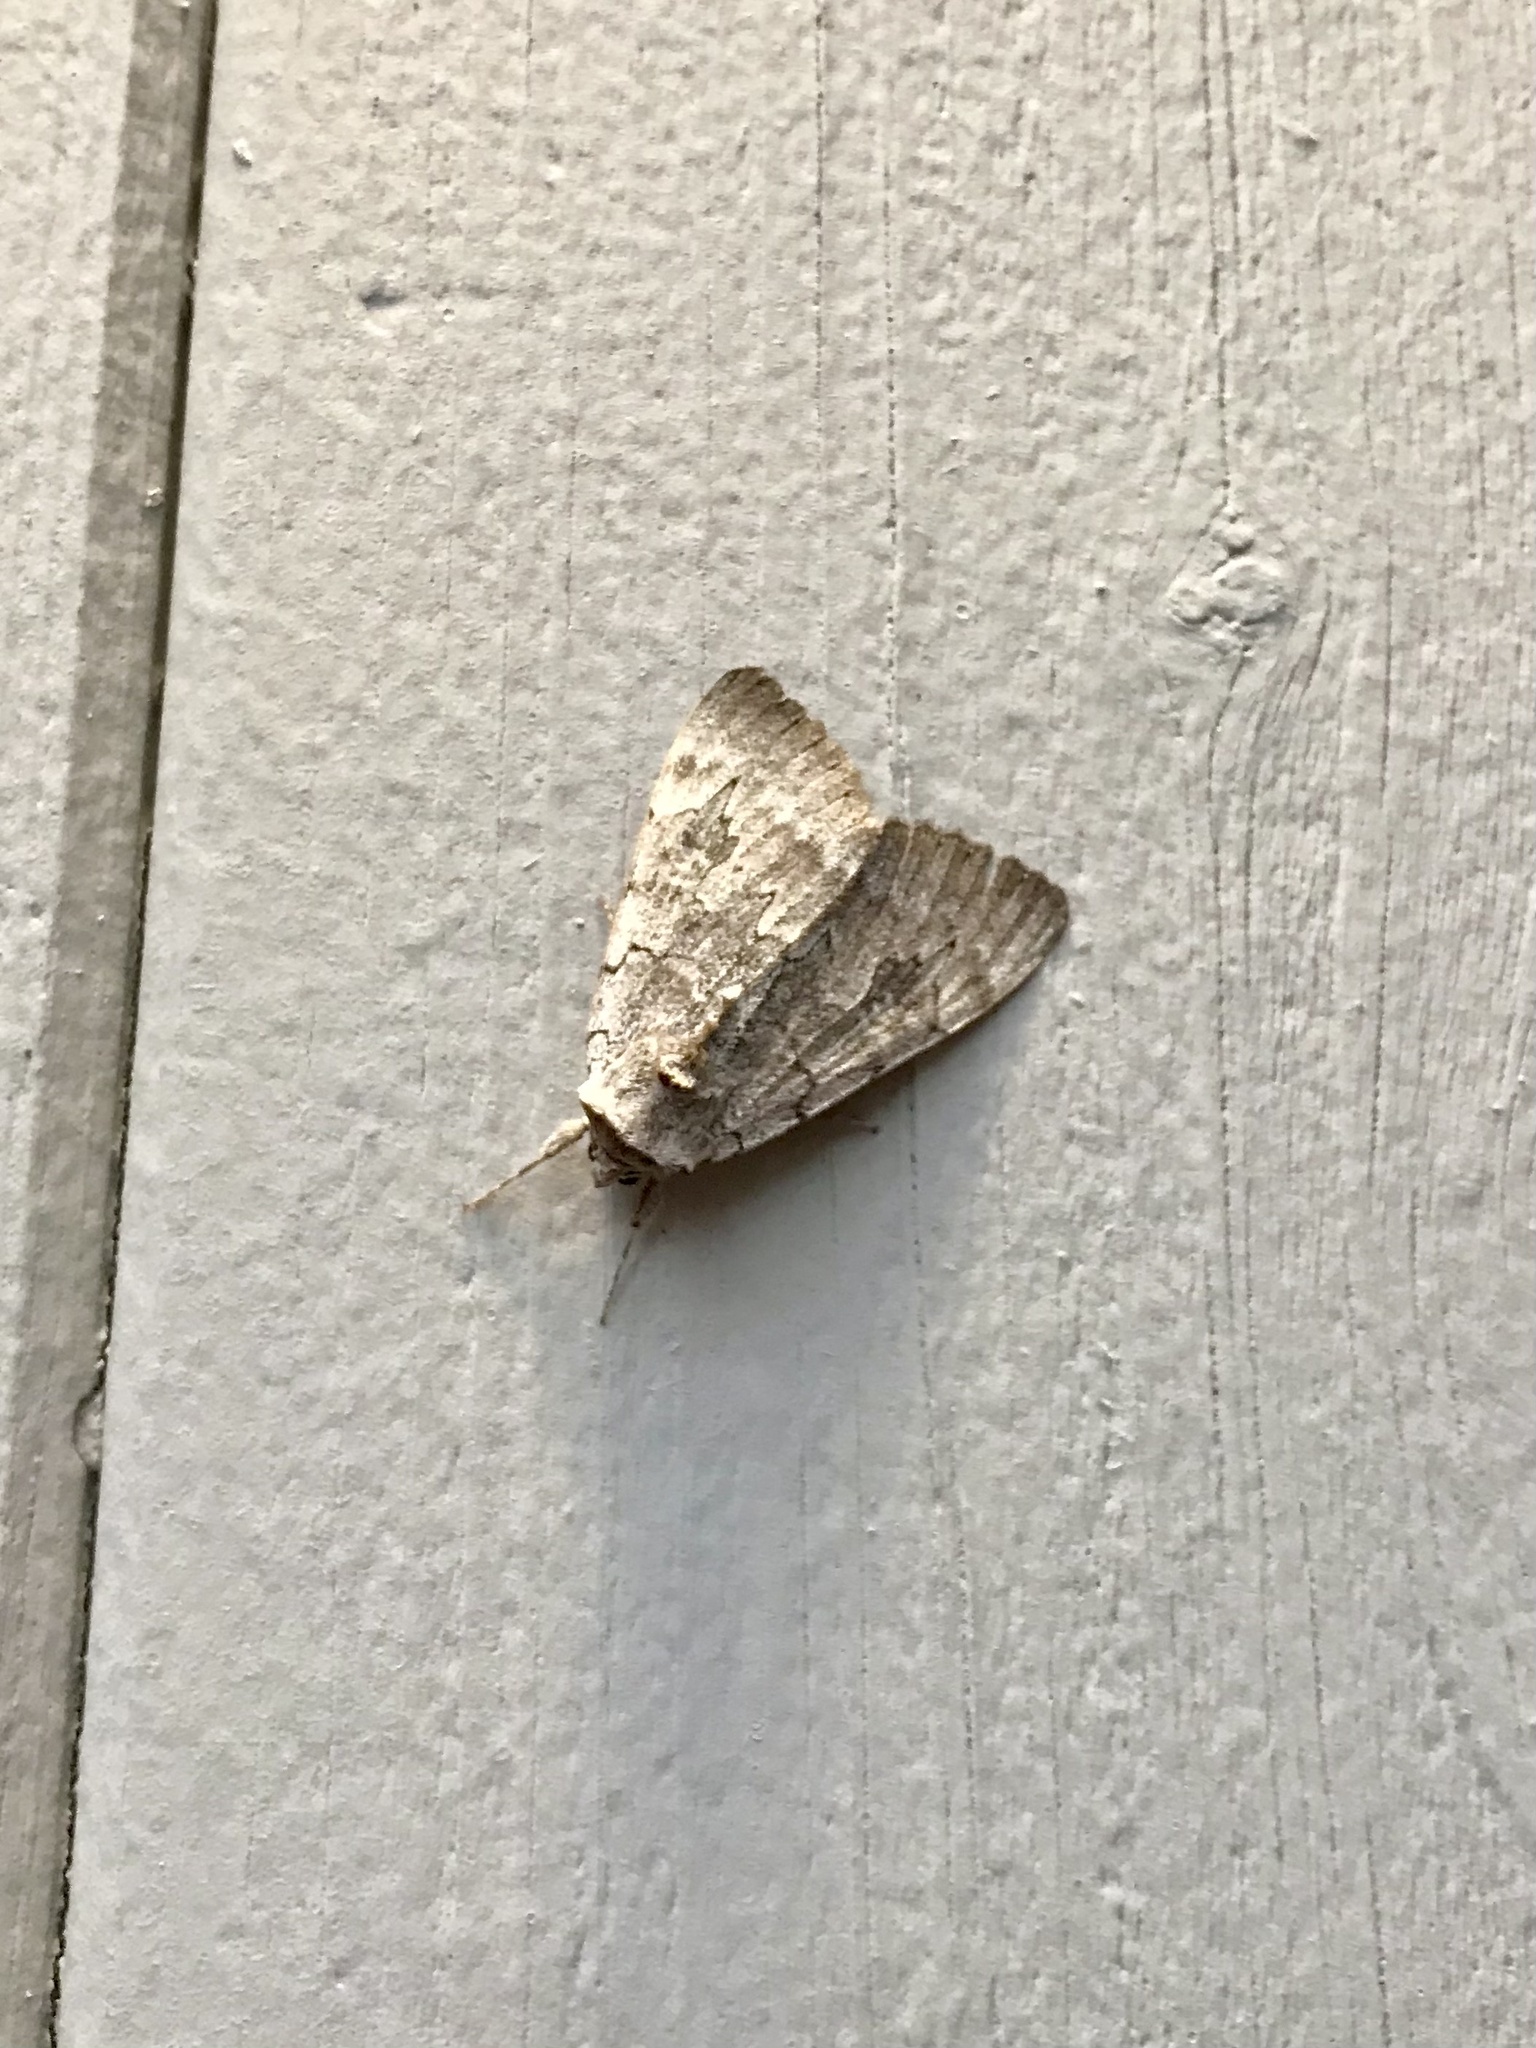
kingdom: Animalia
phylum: Arthropoda
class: Insecta
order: Lepidoptera
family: Erebidae
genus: Catocala
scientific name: Catocala concumbens
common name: Pink underwing
